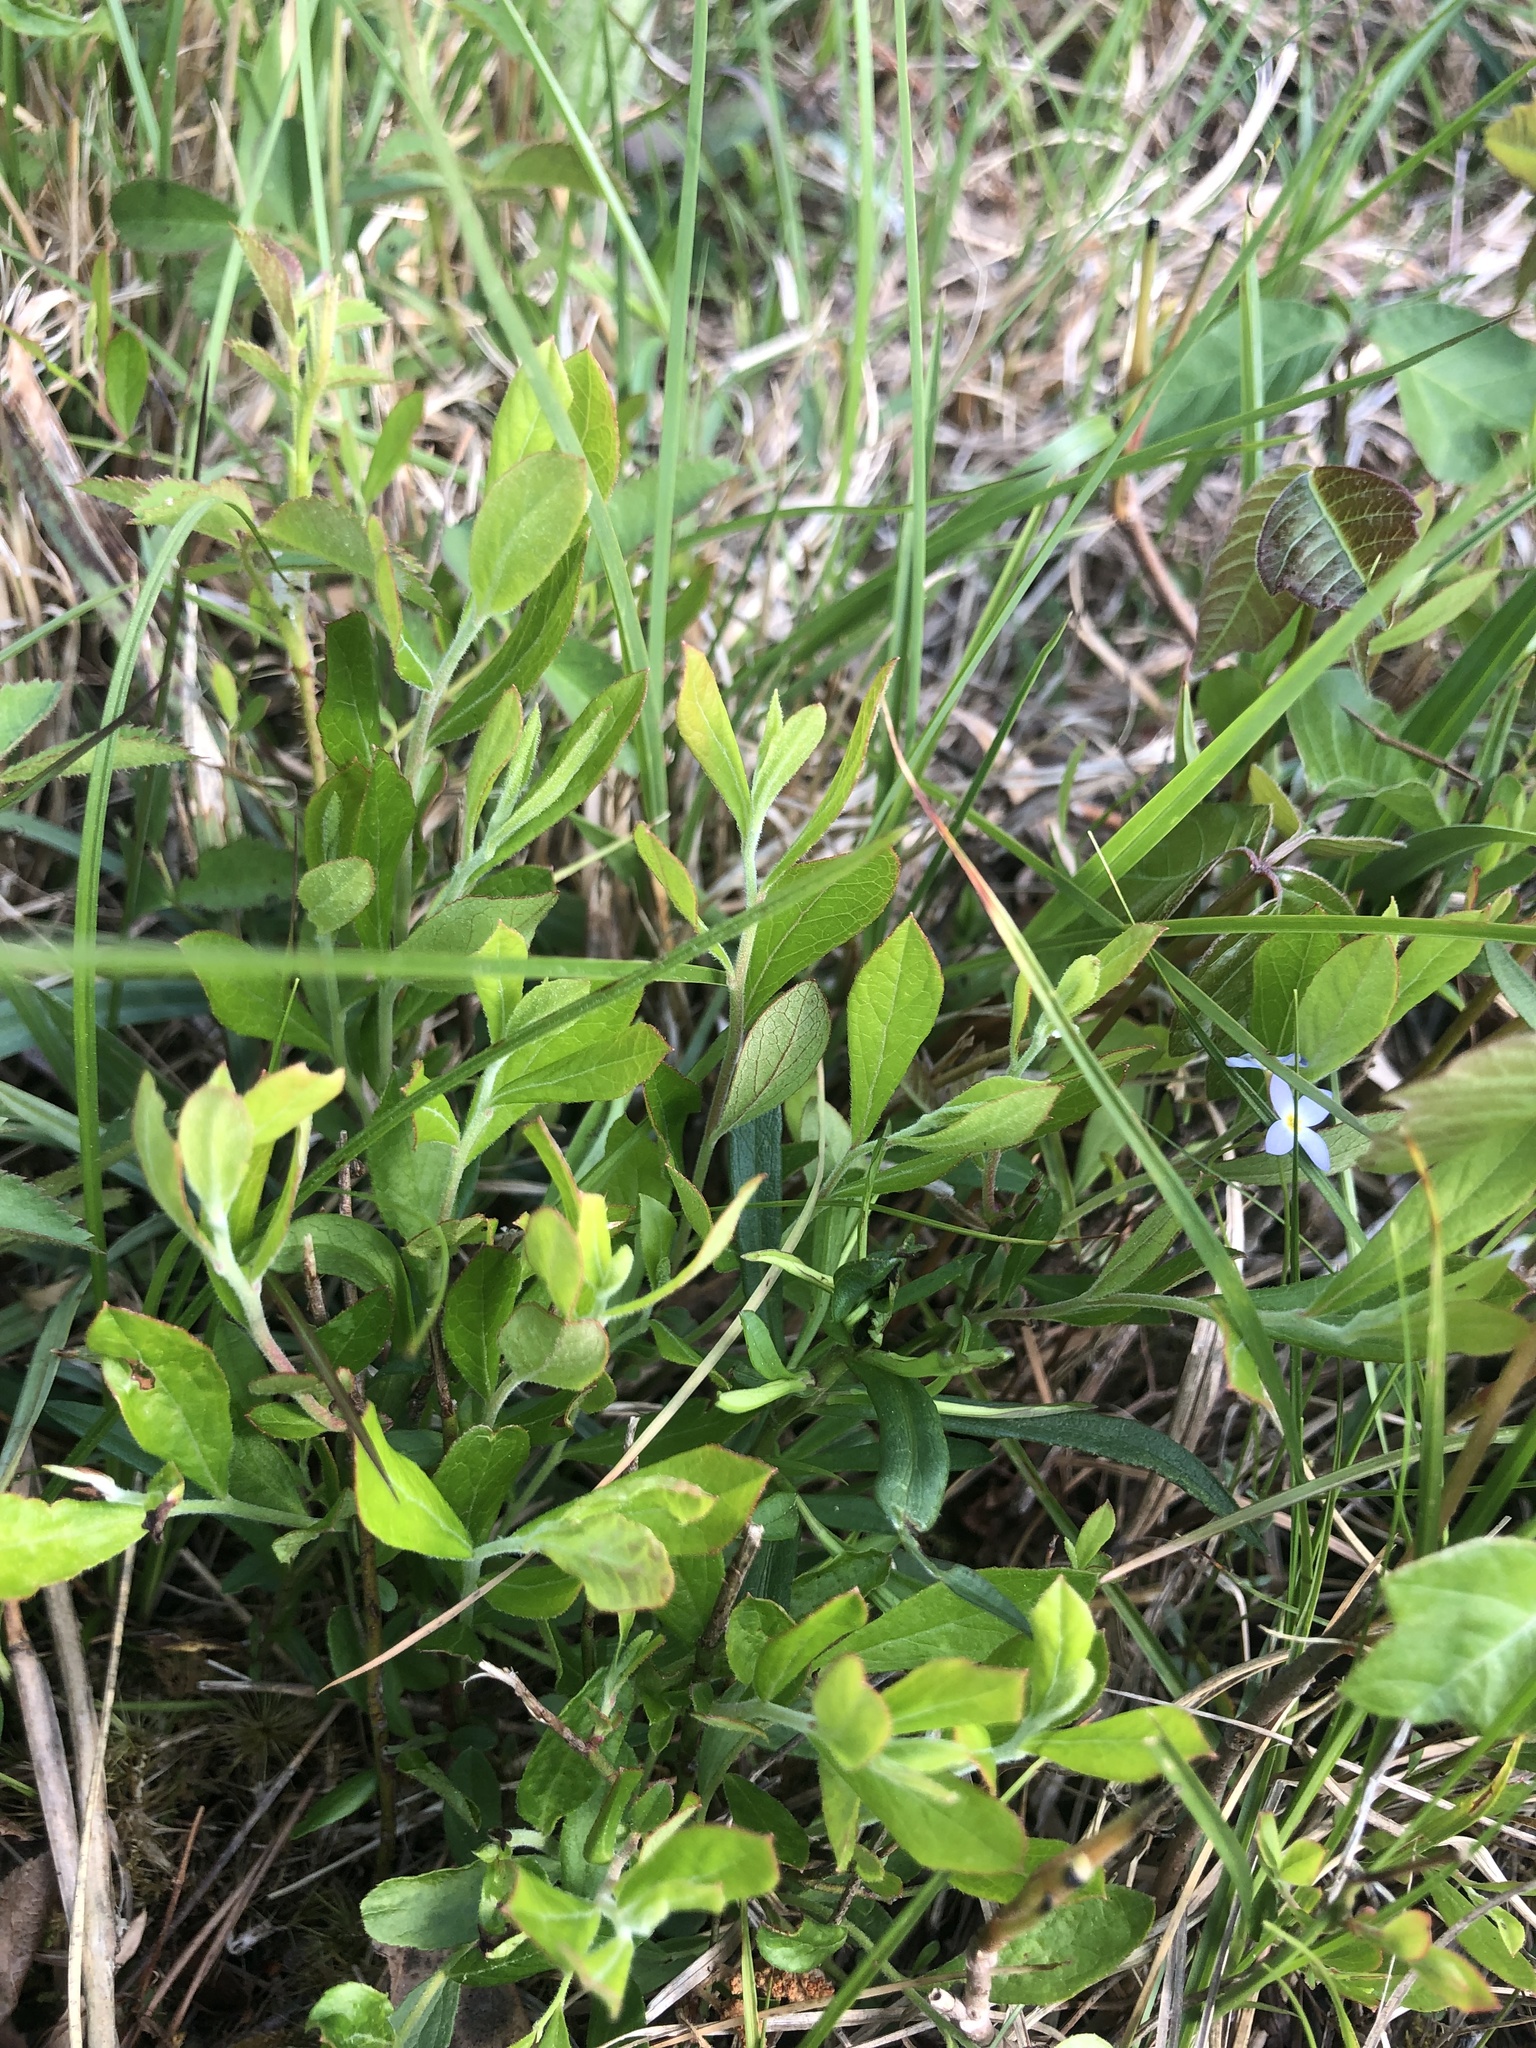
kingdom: Plantae
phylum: Tracheophyta
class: Magnoliopsida
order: Ericales
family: Ericaceae
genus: Vaccinium
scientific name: Vaccinium tenellum
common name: Southern blueberry
